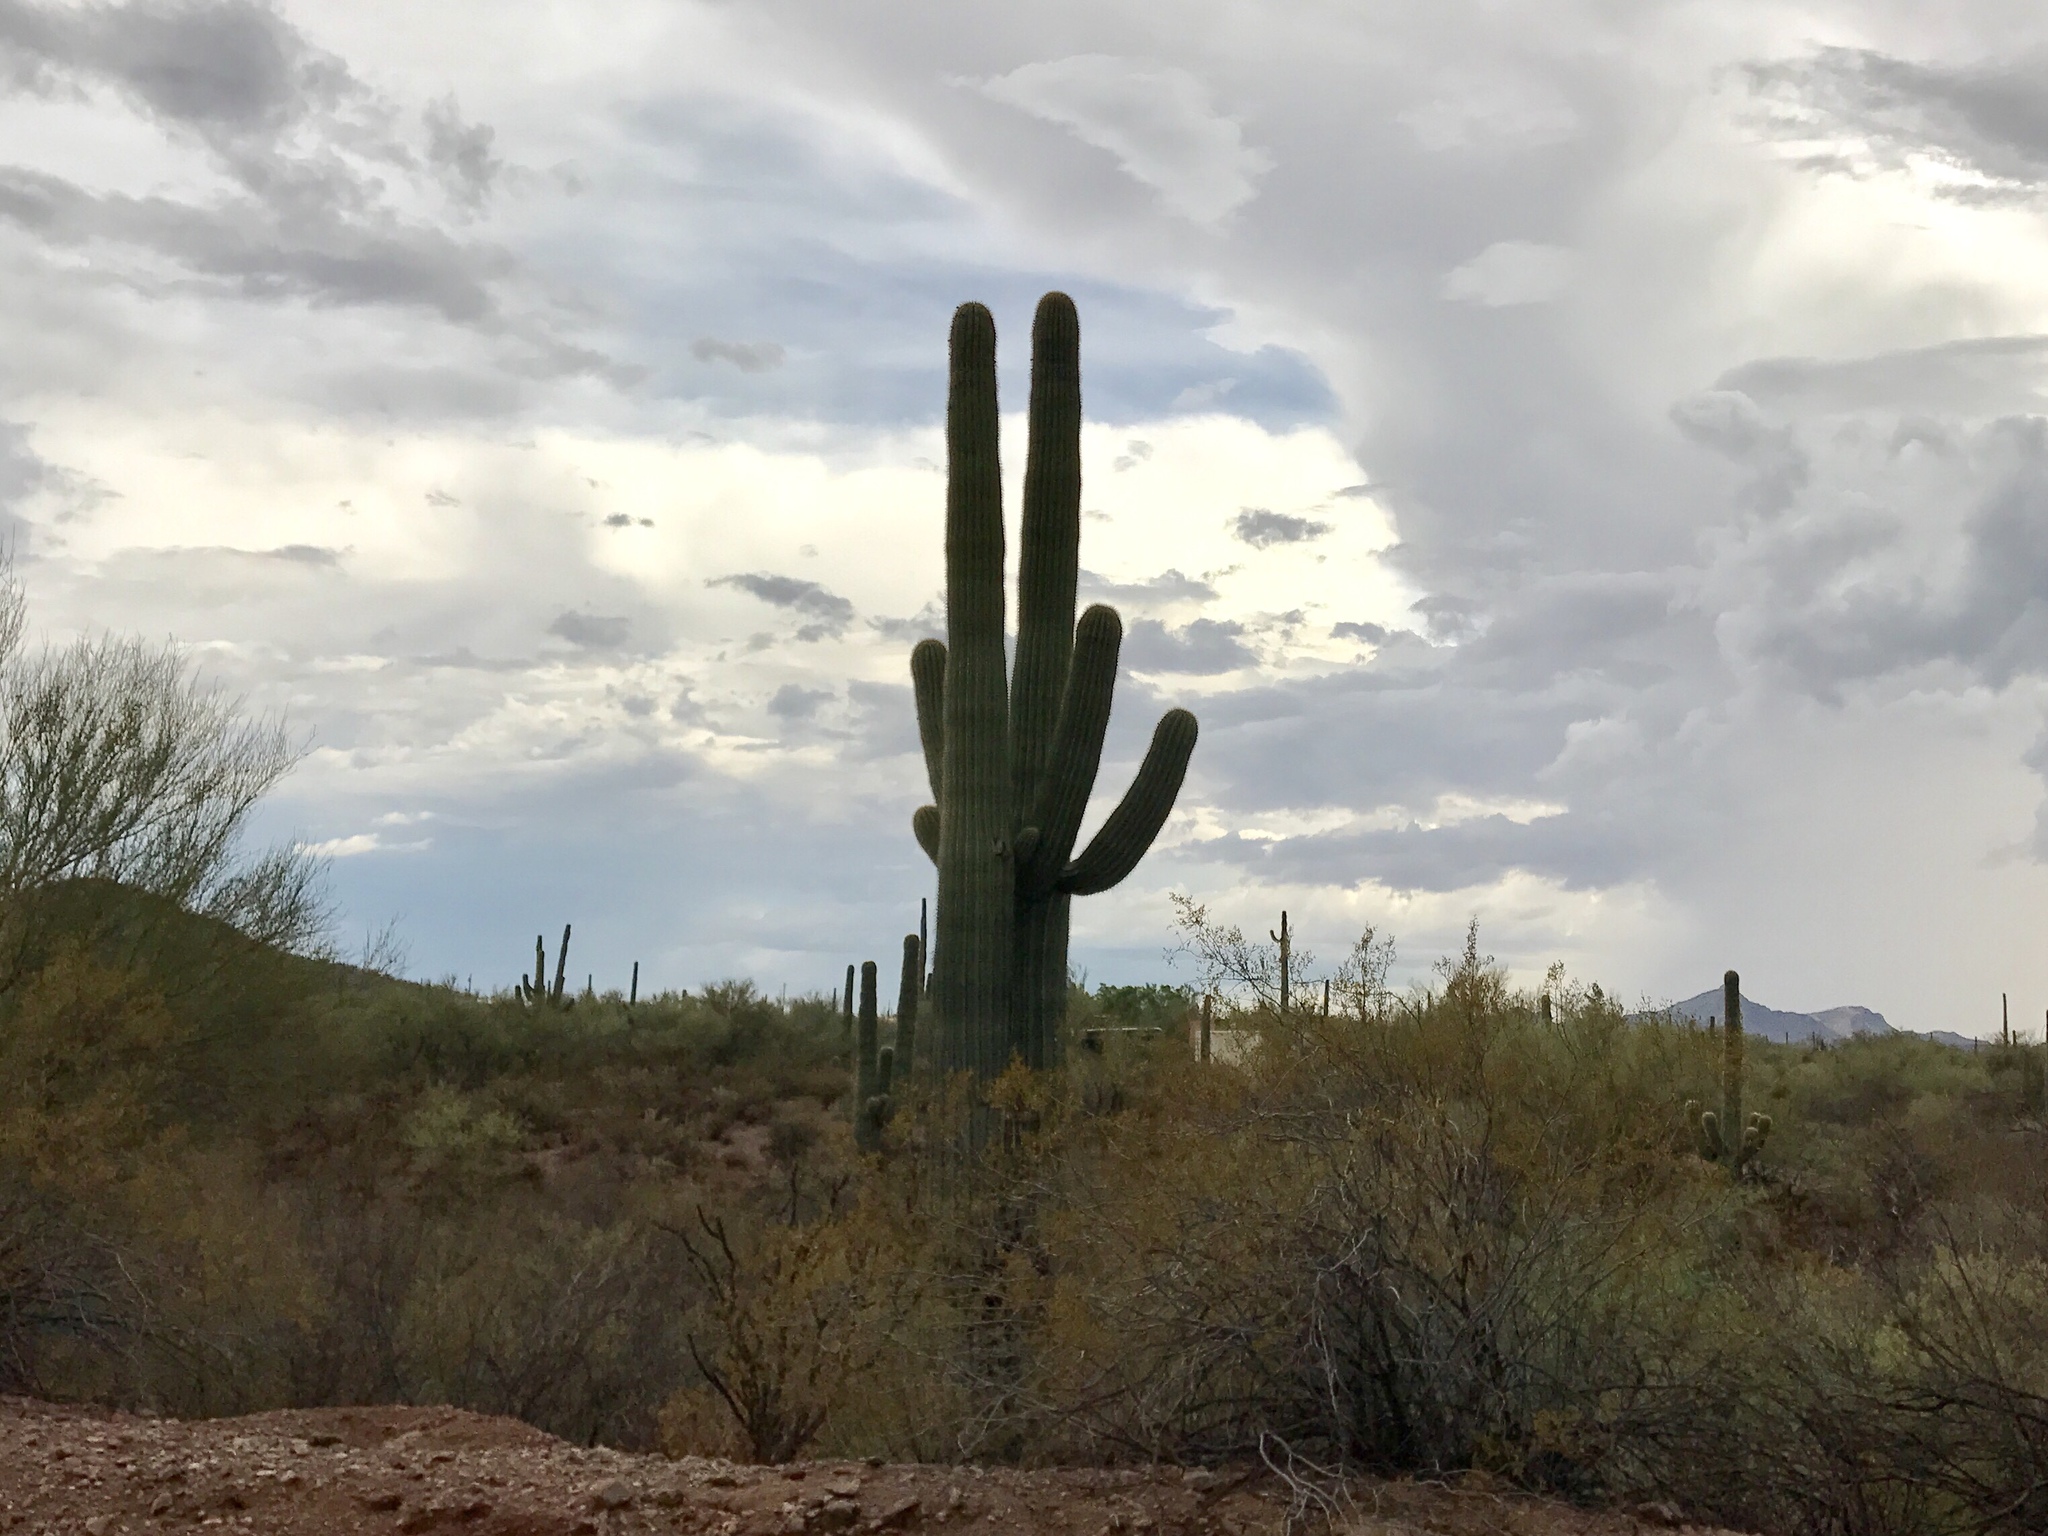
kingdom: Plantae
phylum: Tracheophyta
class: Magnoliopsida
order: Caryophyllales
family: Cactaceae
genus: Carnegiea
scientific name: Carnegiea gigantea
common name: Saguaro
